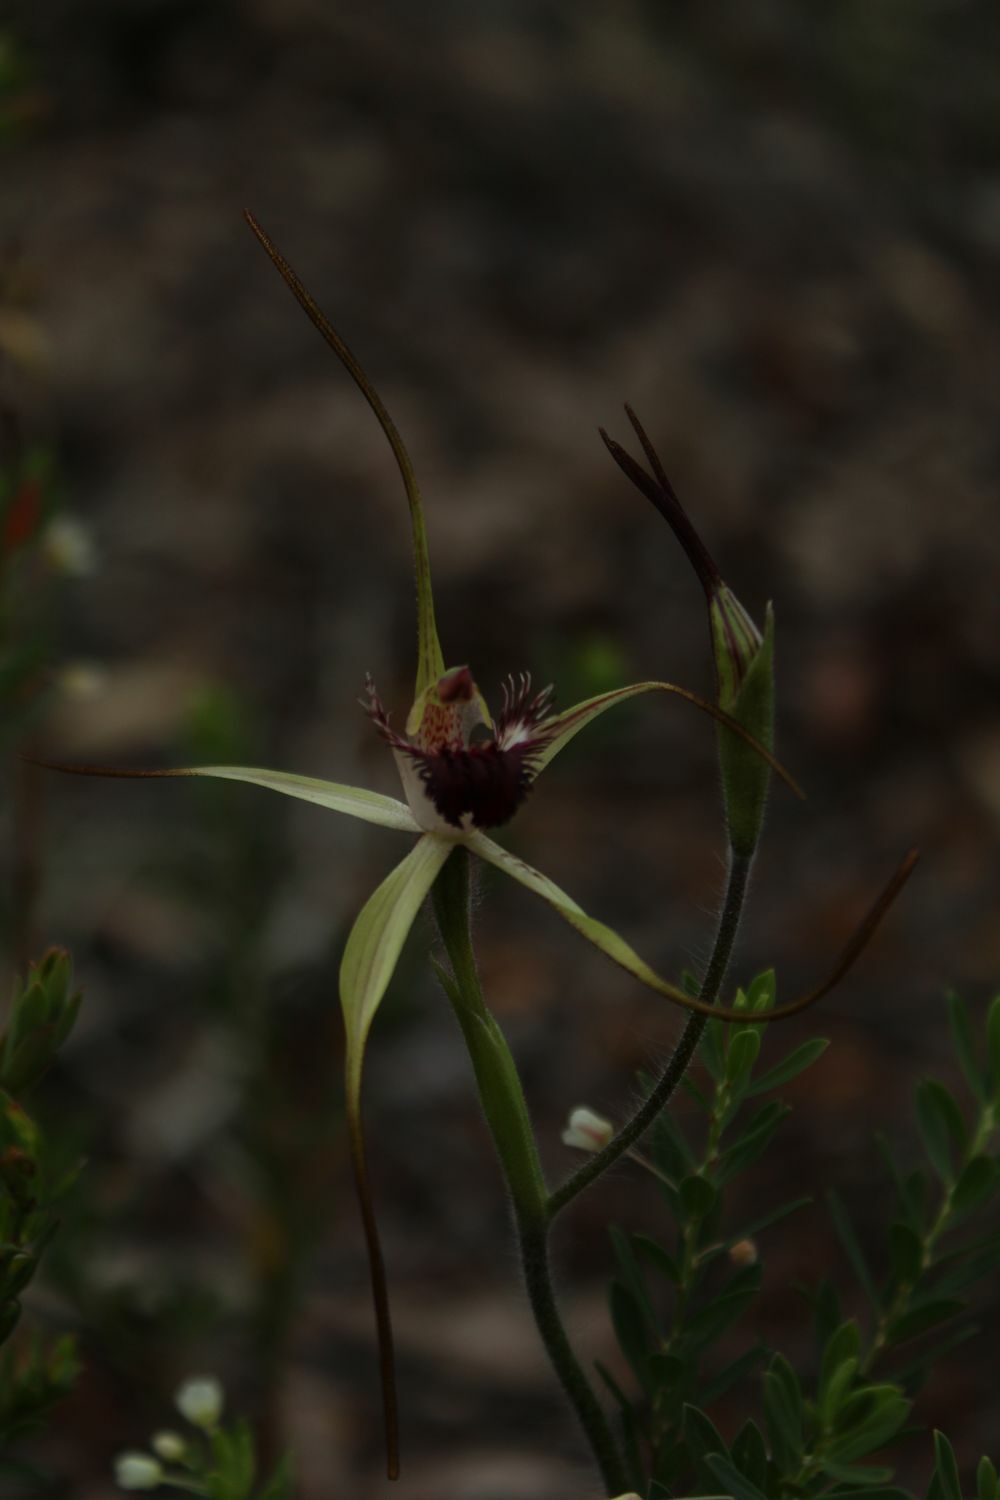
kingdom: Plantae
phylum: Tracheophyta
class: Liliopsida
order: Asparagales
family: Orchidaceae
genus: Caladenia
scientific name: Caladenia heberleana
